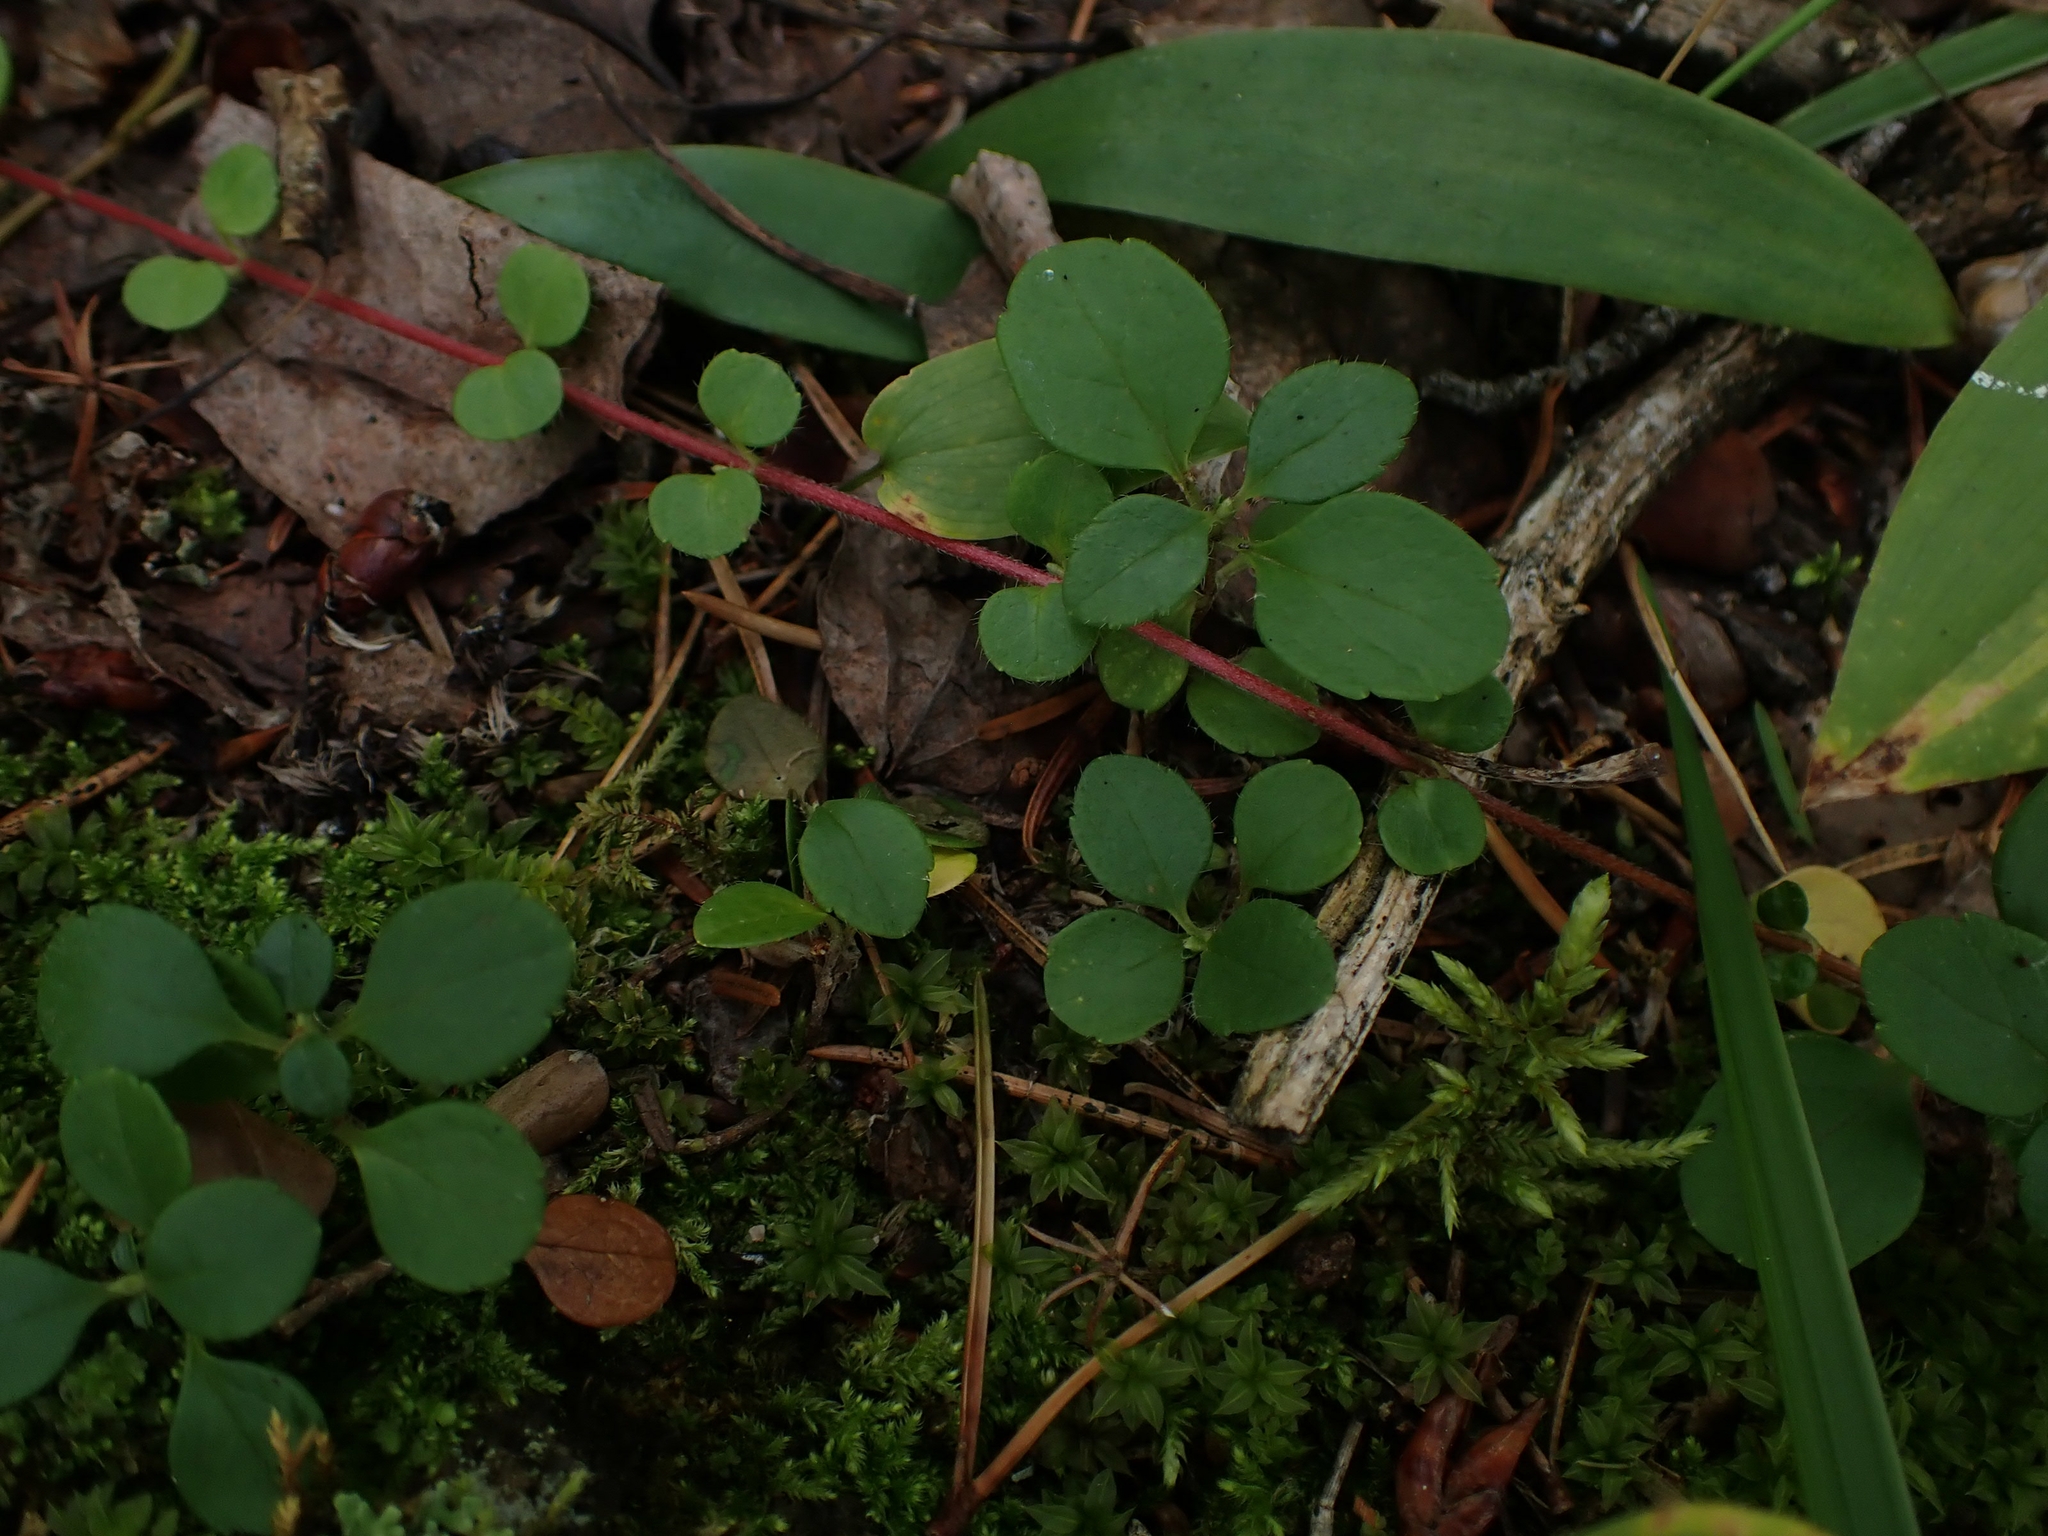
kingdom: Plantae
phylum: Tracheophyta
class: Magnoliopsida
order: Dipsacales
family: Caprifoliaceae
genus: Linnaea
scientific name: Linnaea borealis
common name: Twinflower
